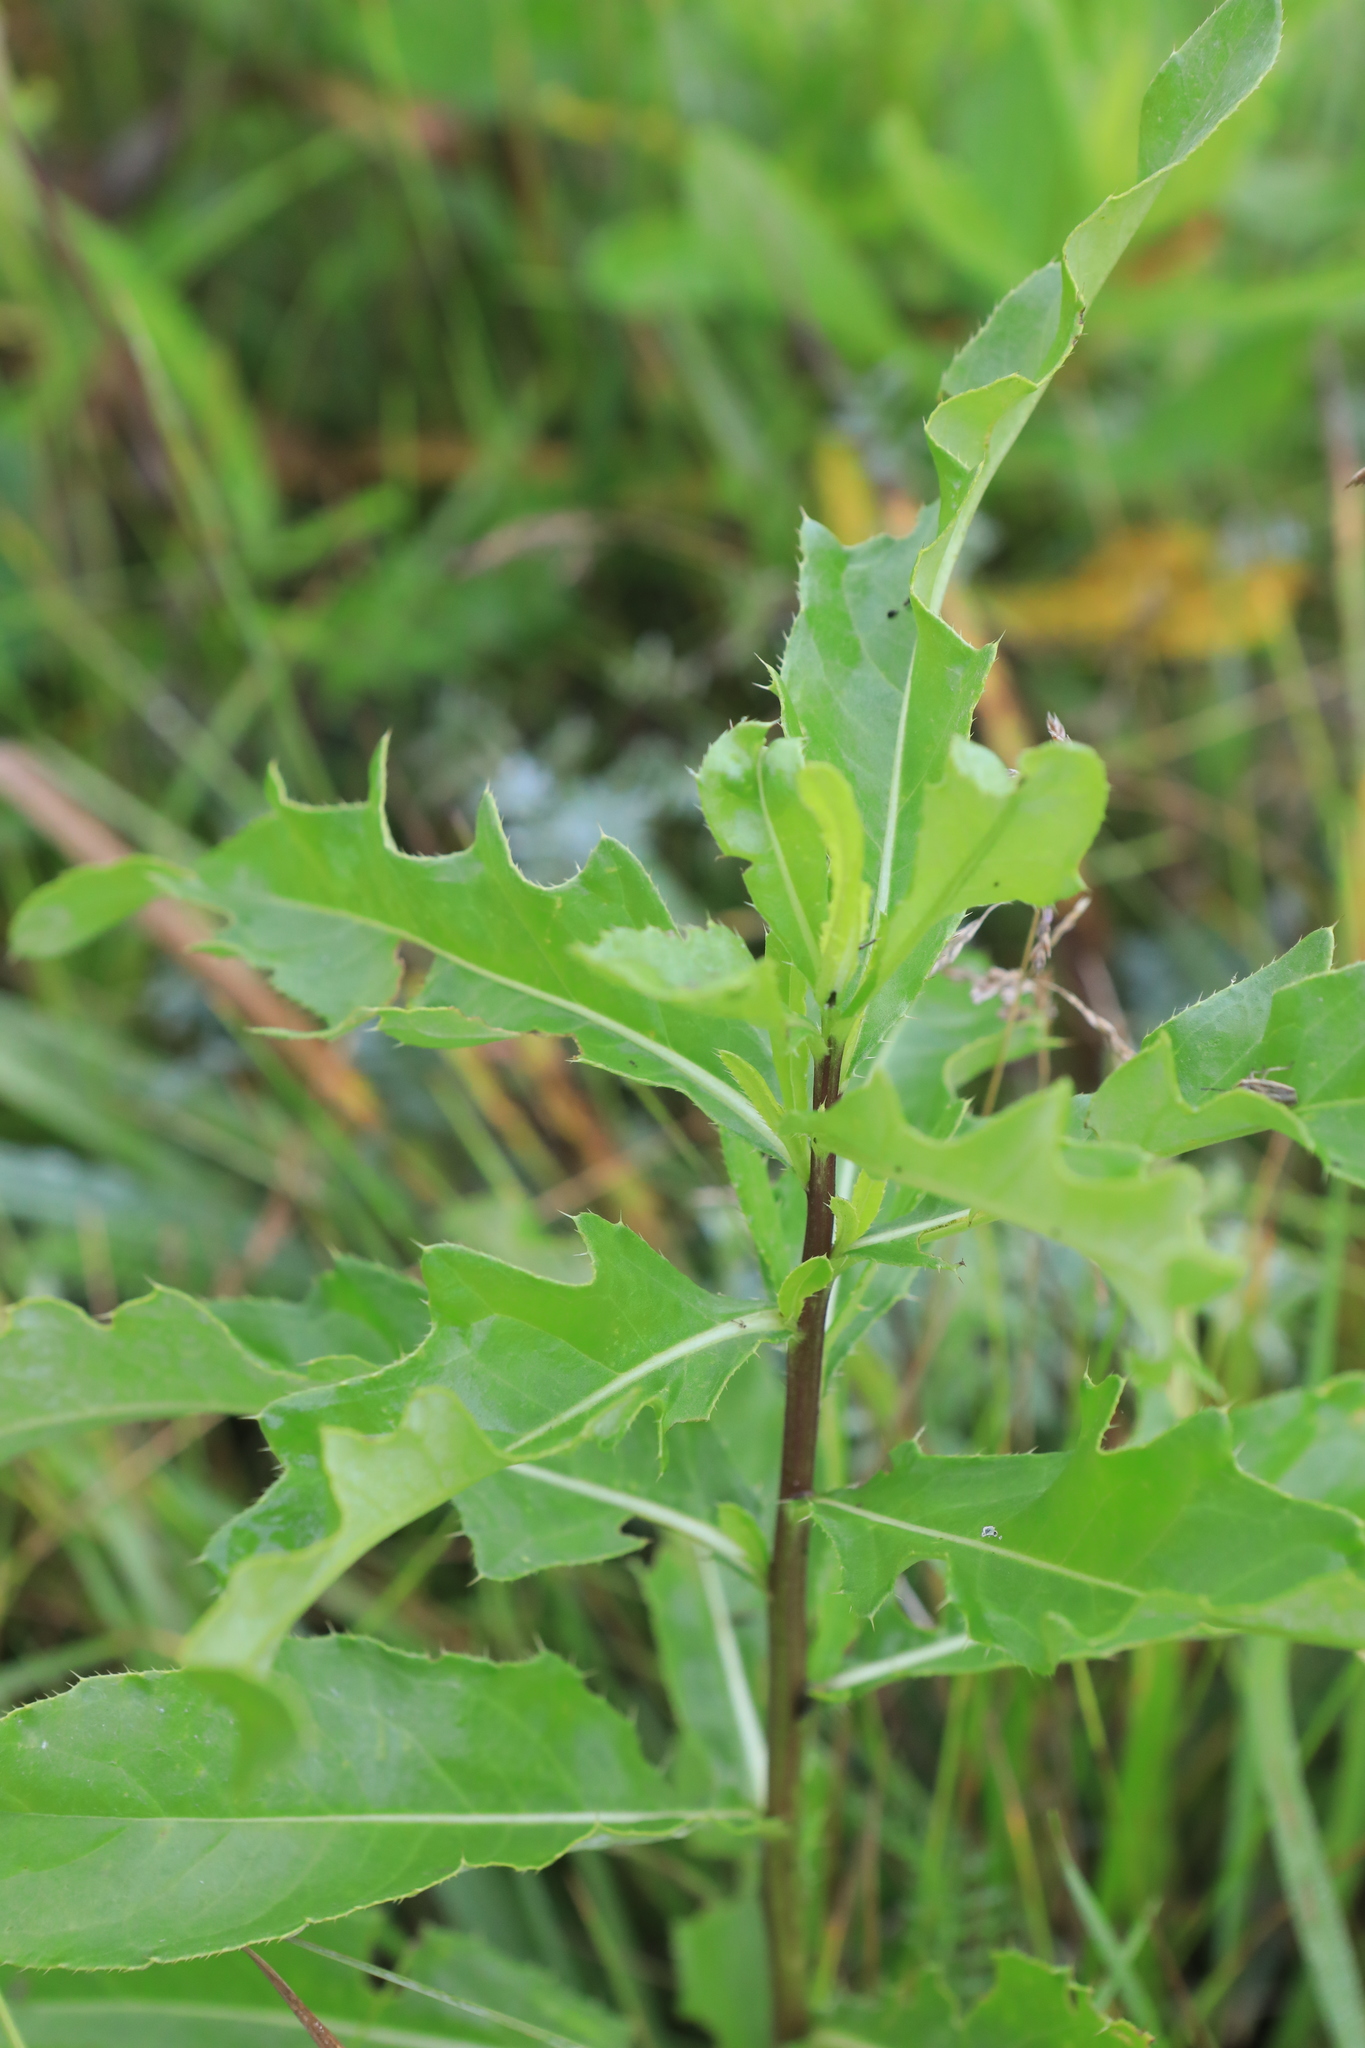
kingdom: Plantae
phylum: Tracheophyta
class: Magnoliopsida
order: Asterales
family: Asteraceae
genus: Cirsium
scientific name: Cirsium arvense
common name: Creeping thistle
